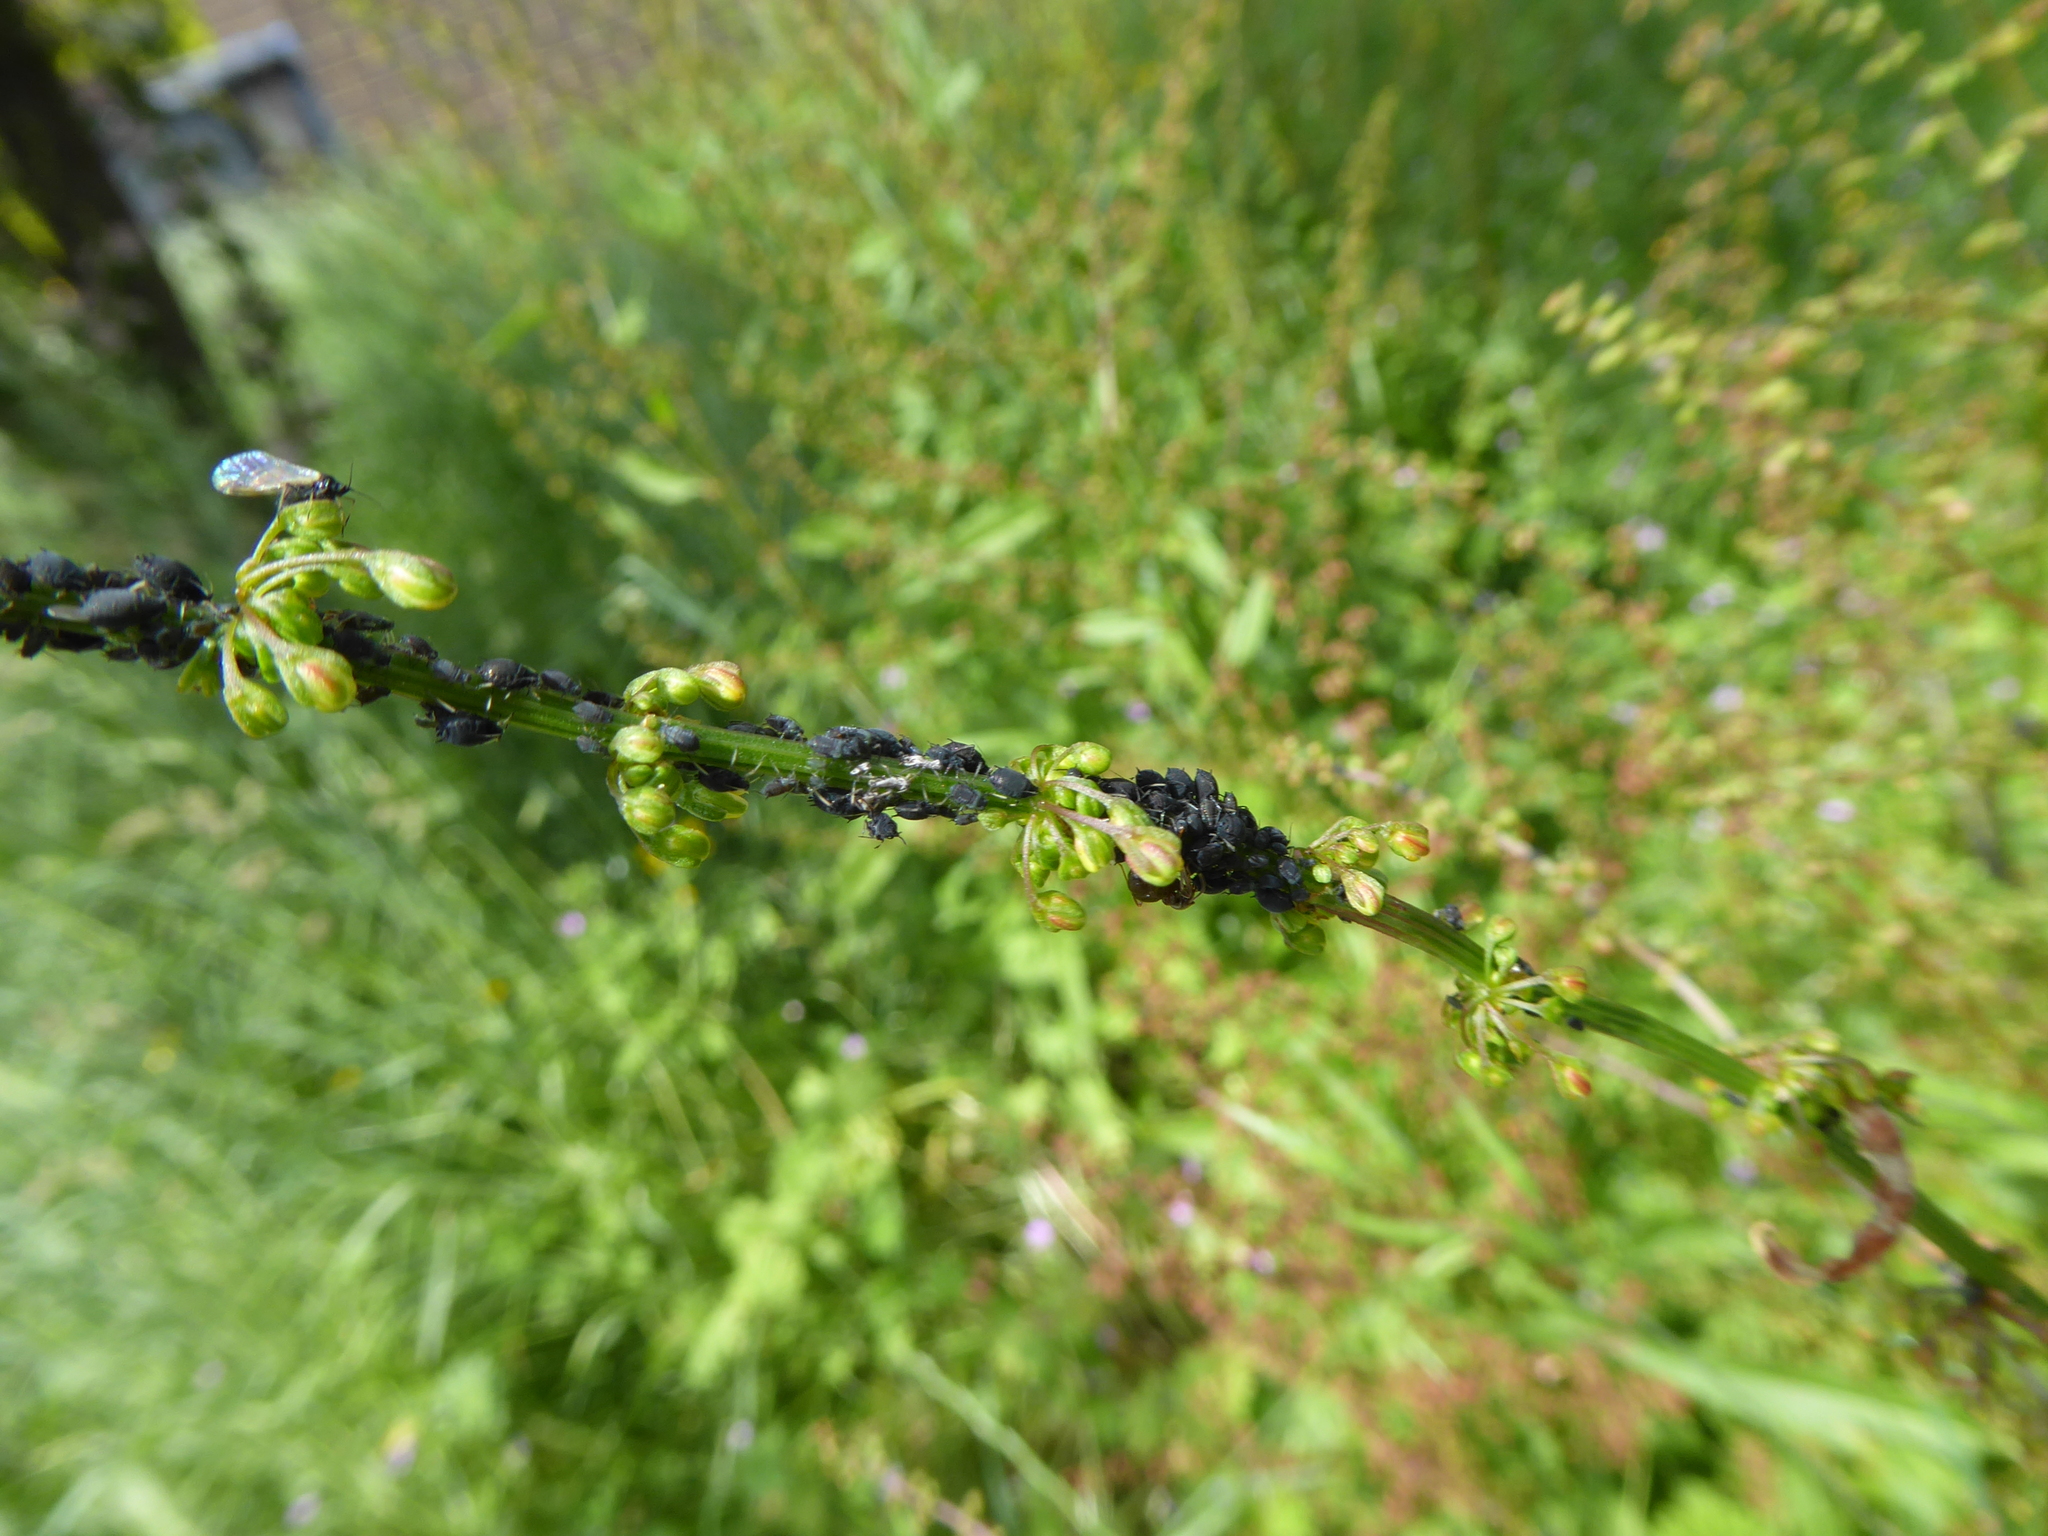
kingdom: Plantae
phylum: Tracheophyta
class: Magnoliopsida
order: Caryophyllales
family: Polygonaceae
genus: Rumex
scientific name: Rumex
